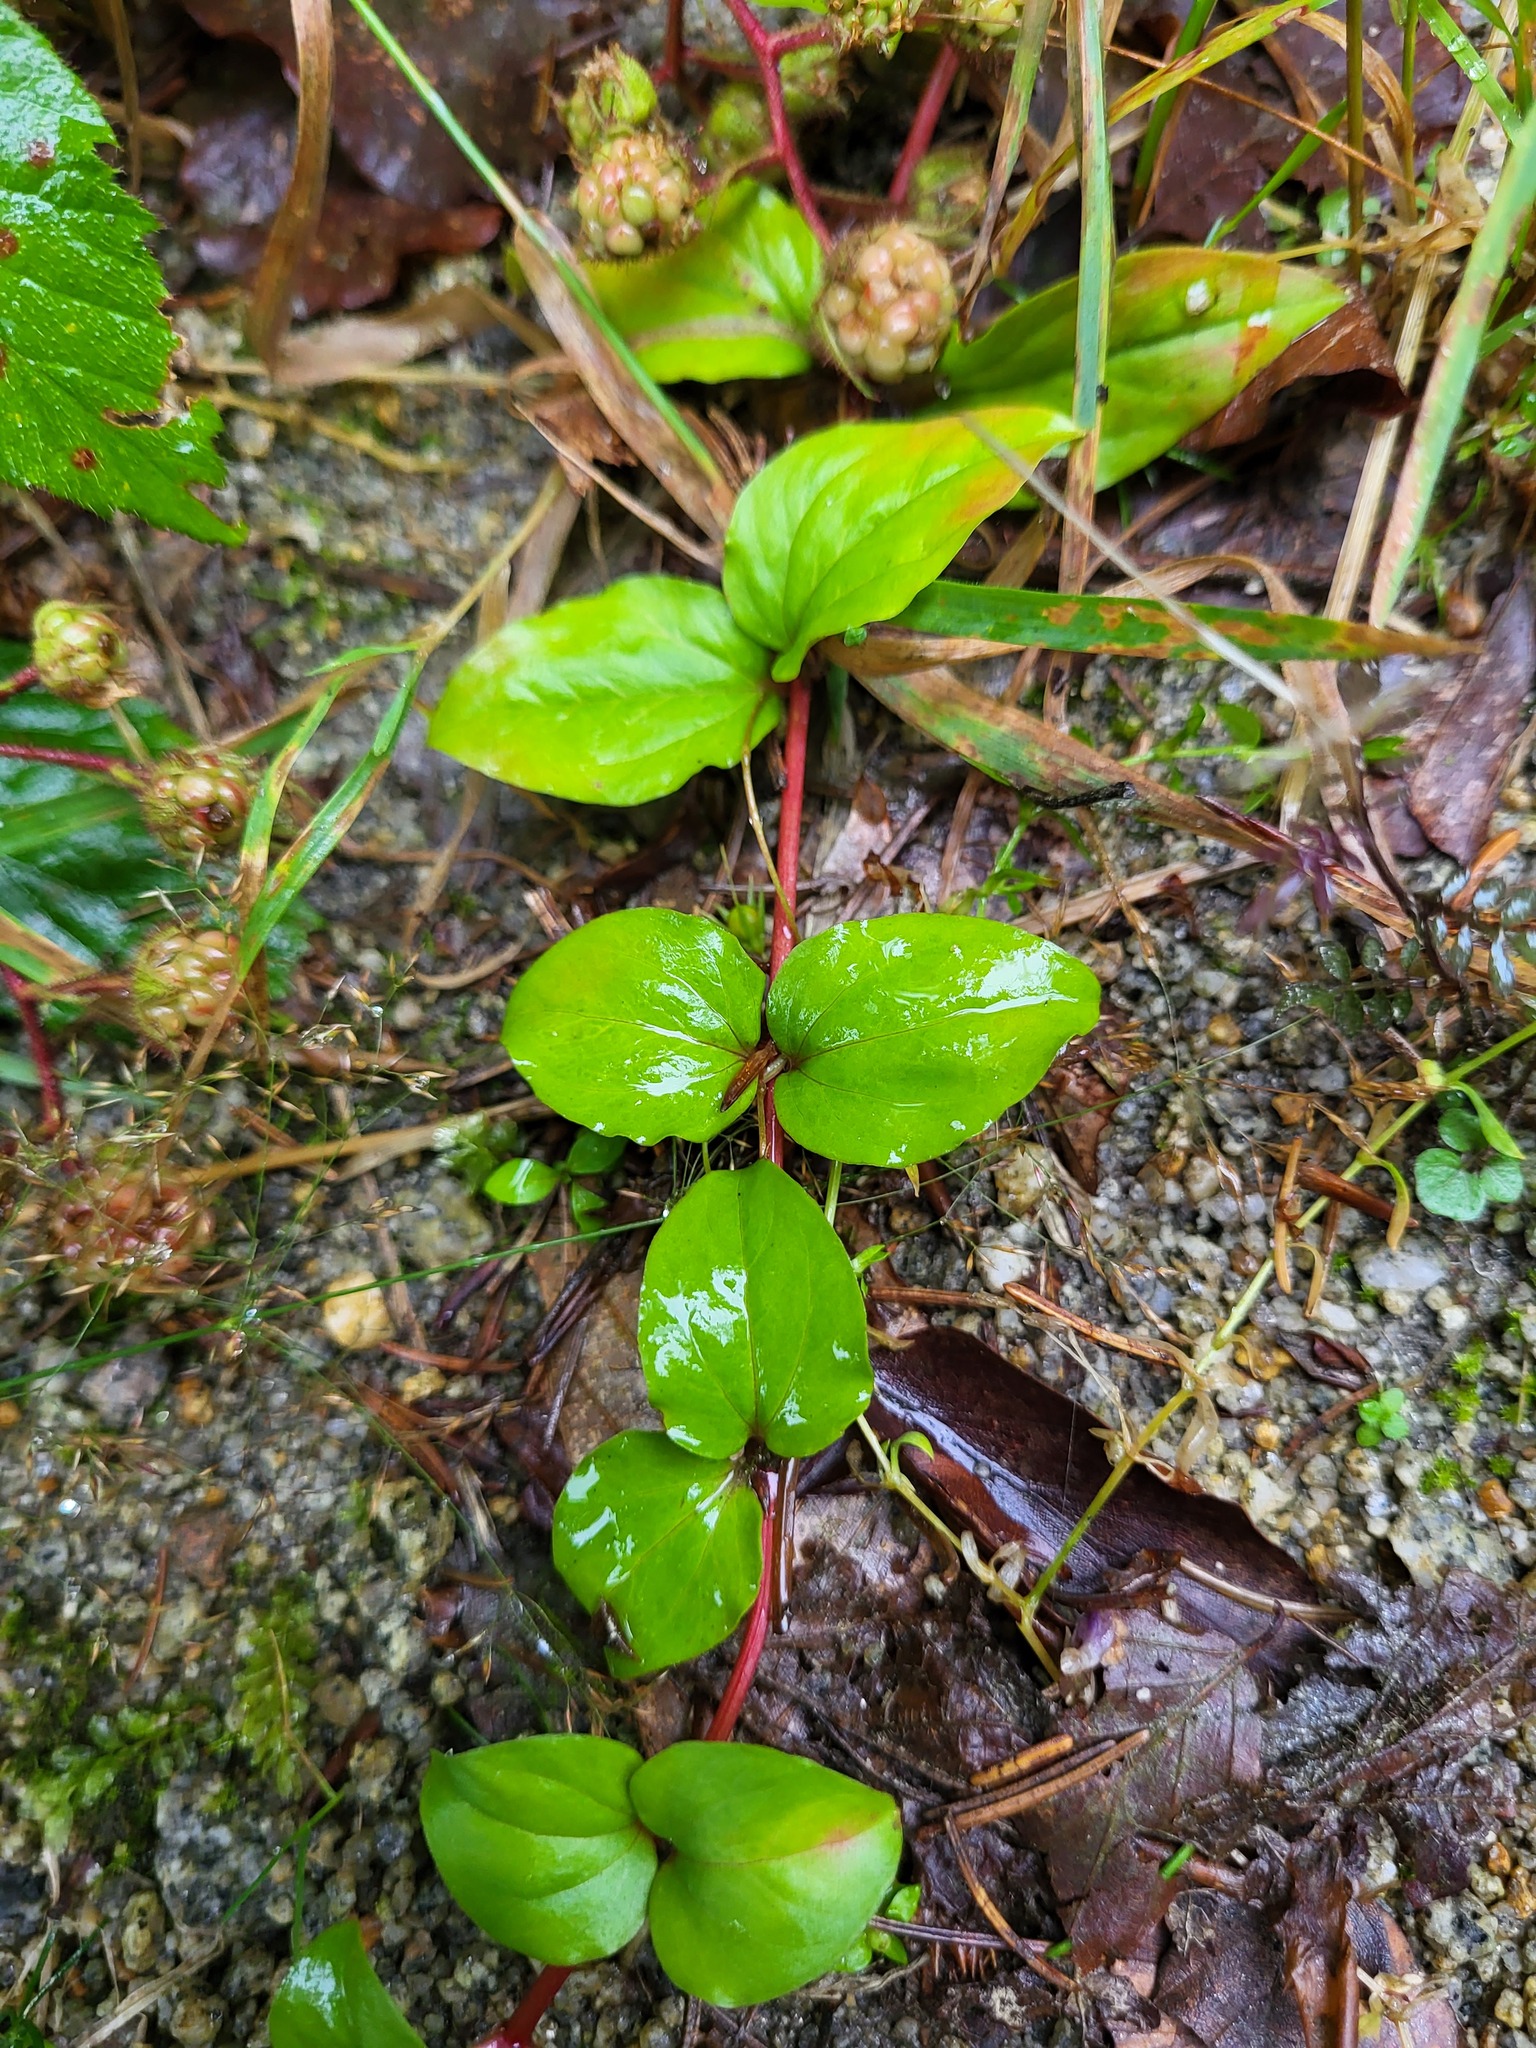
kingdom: Plantae
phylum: Tracheophyta
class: Magnoliopsida
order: Ericales
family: Primulaceae
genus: Lysimachia
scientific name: Lysimachia nemorum
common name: Yellow pimpernel
